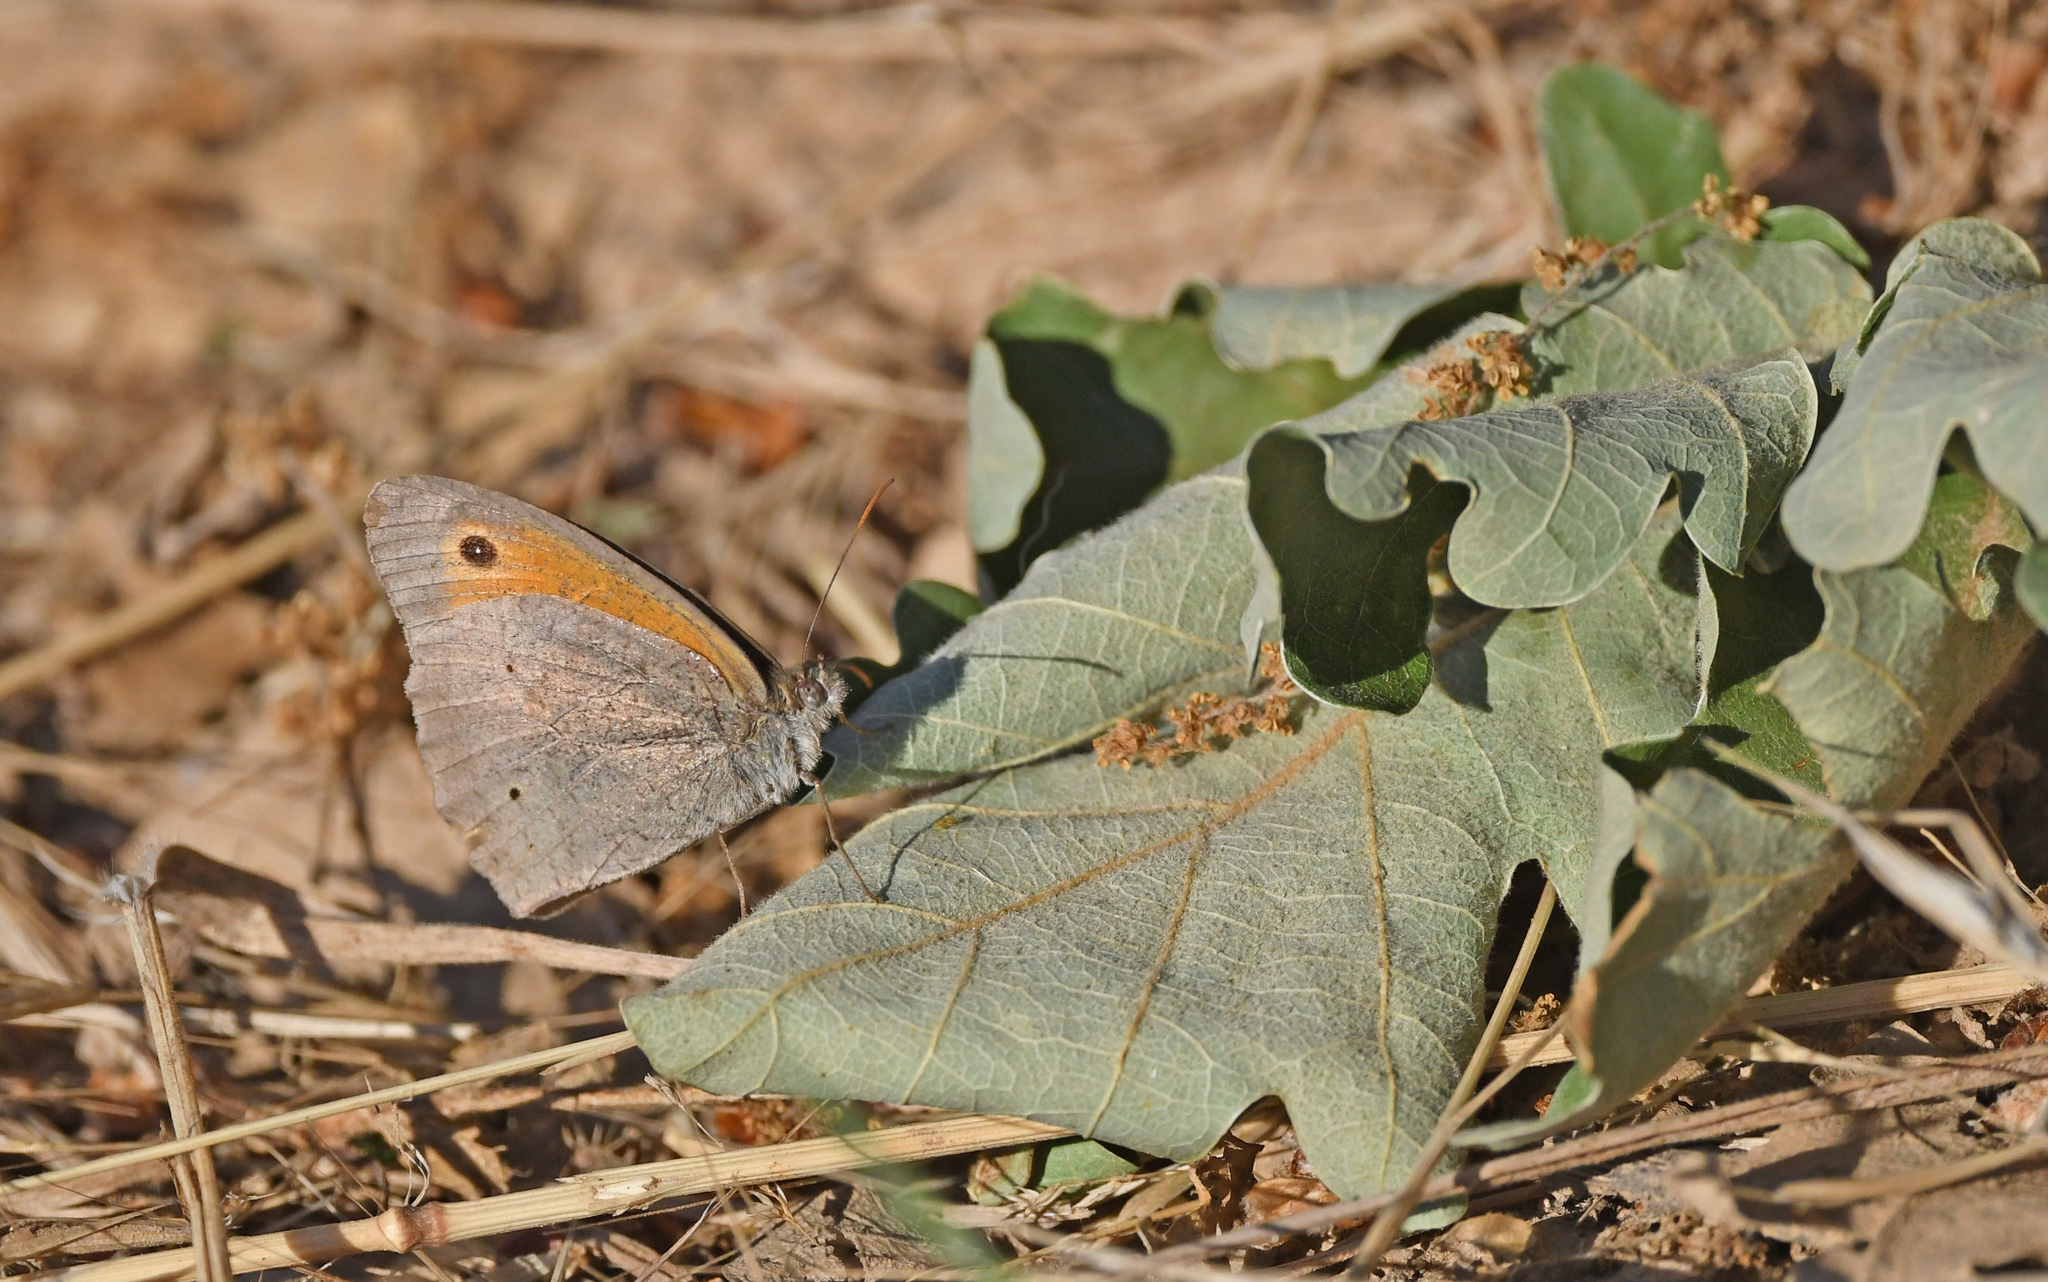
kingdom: Animalia
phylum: Arthropoda
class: Insecta
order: Lepidoptera
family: Nymphalidae
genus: Maniola
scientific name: Maniola jurtina
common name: Meadow brown
